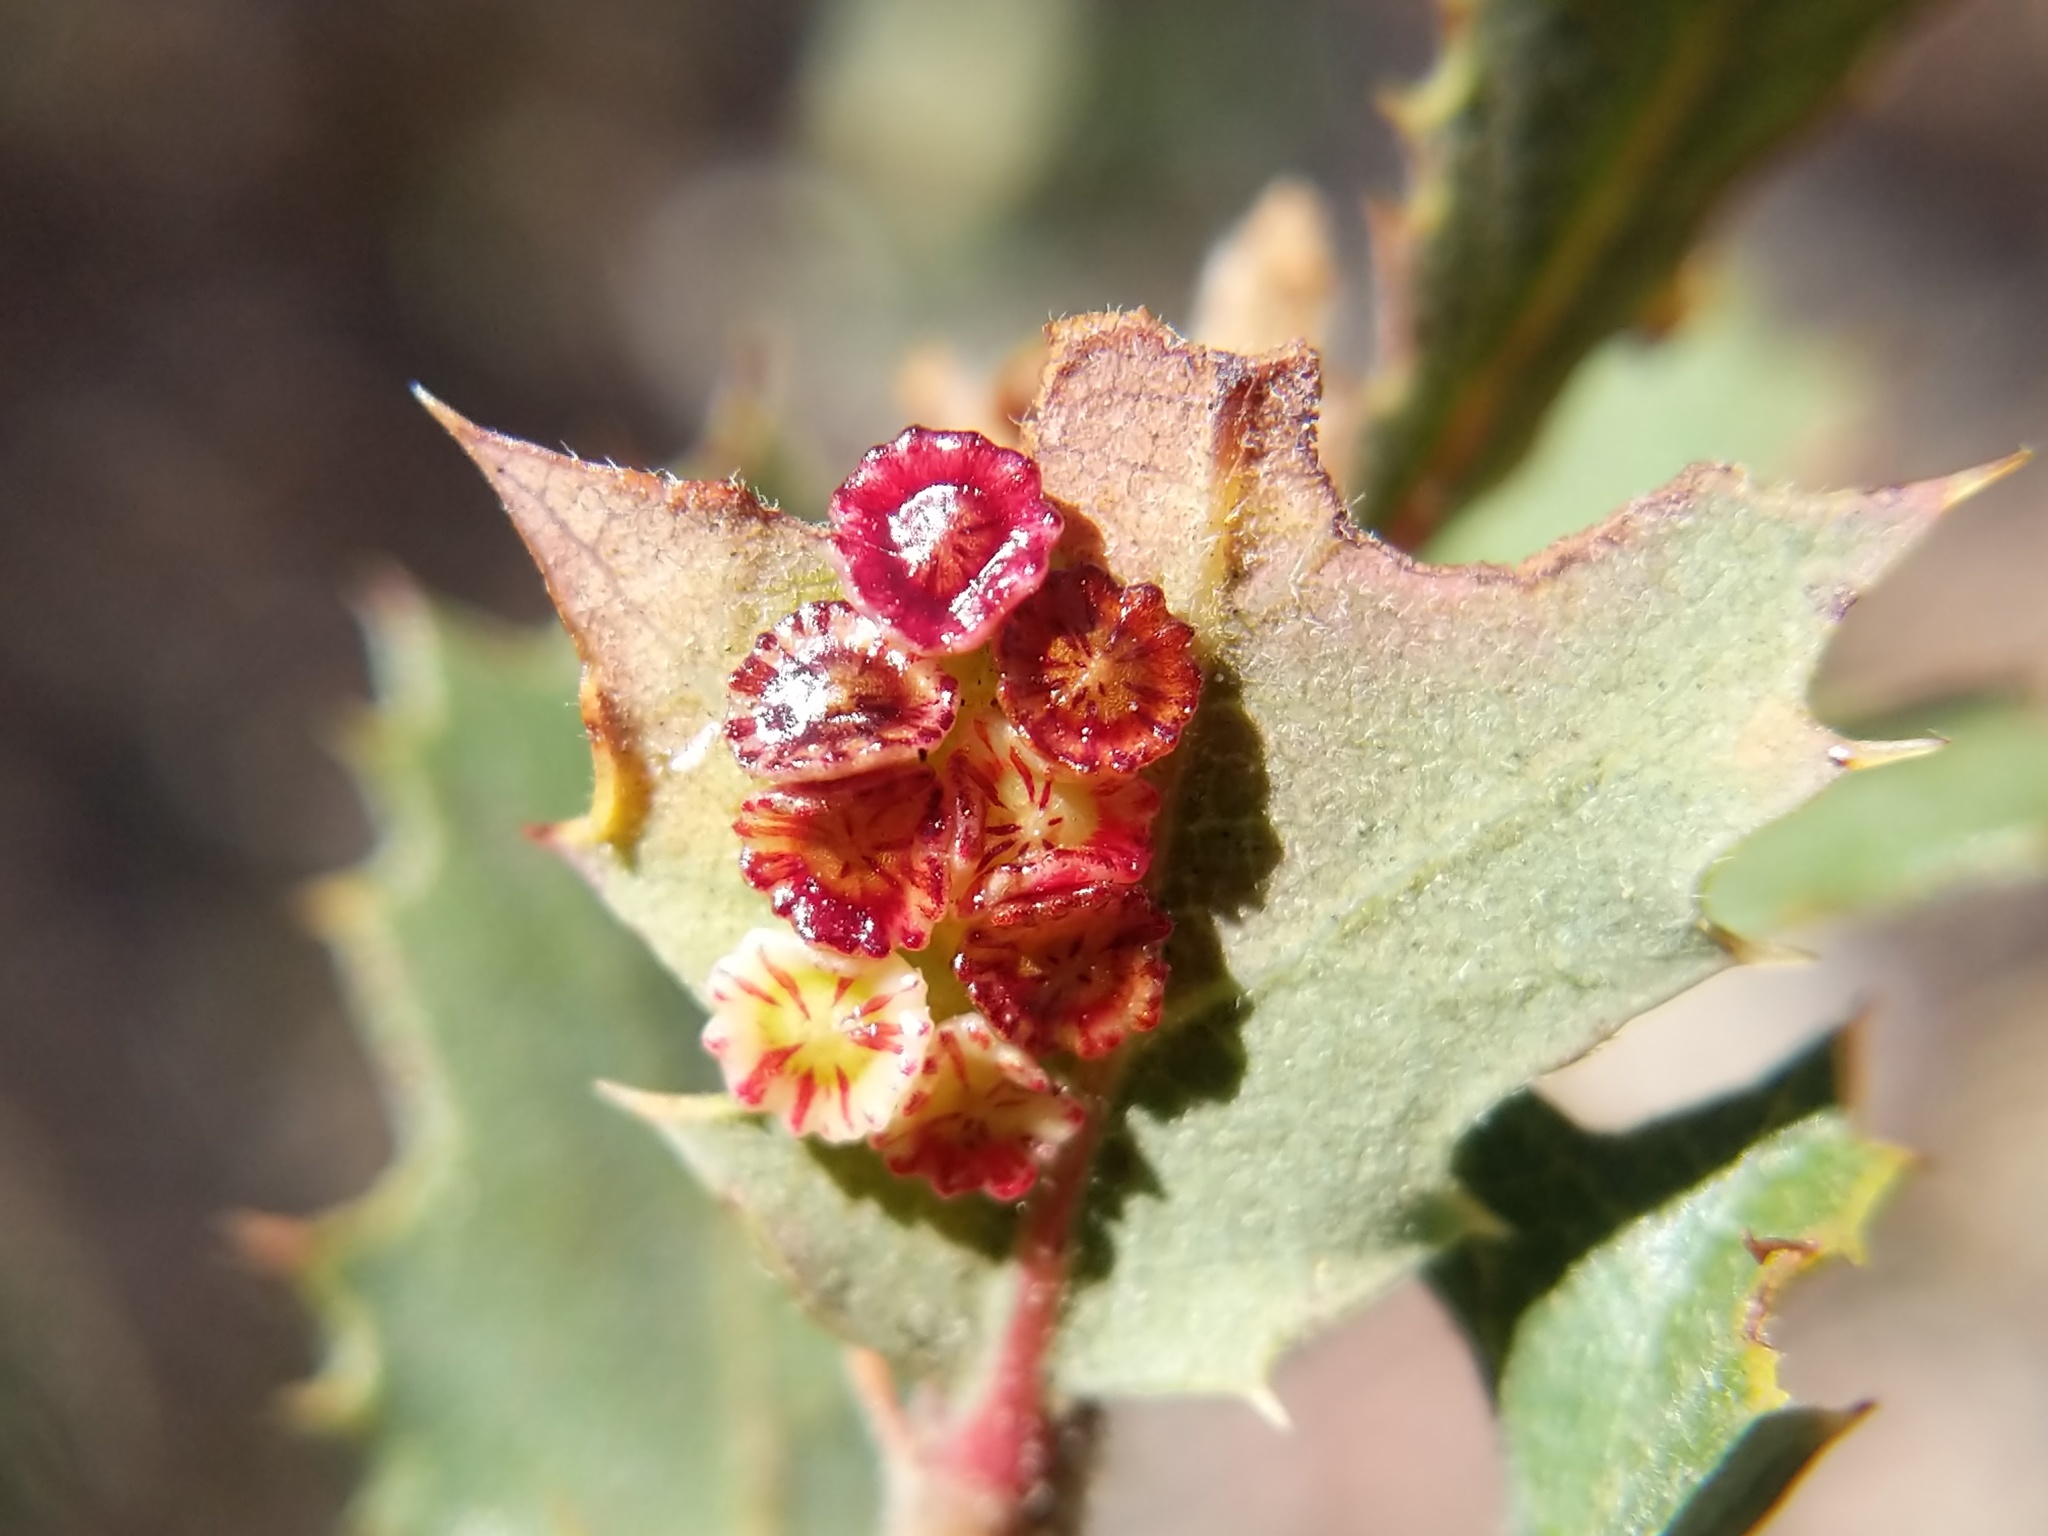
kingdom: Animalia
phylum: Arthropoda
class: Insecta
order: Hymenoptera
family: Cynipidae
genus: Andricus
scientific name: Andricus
